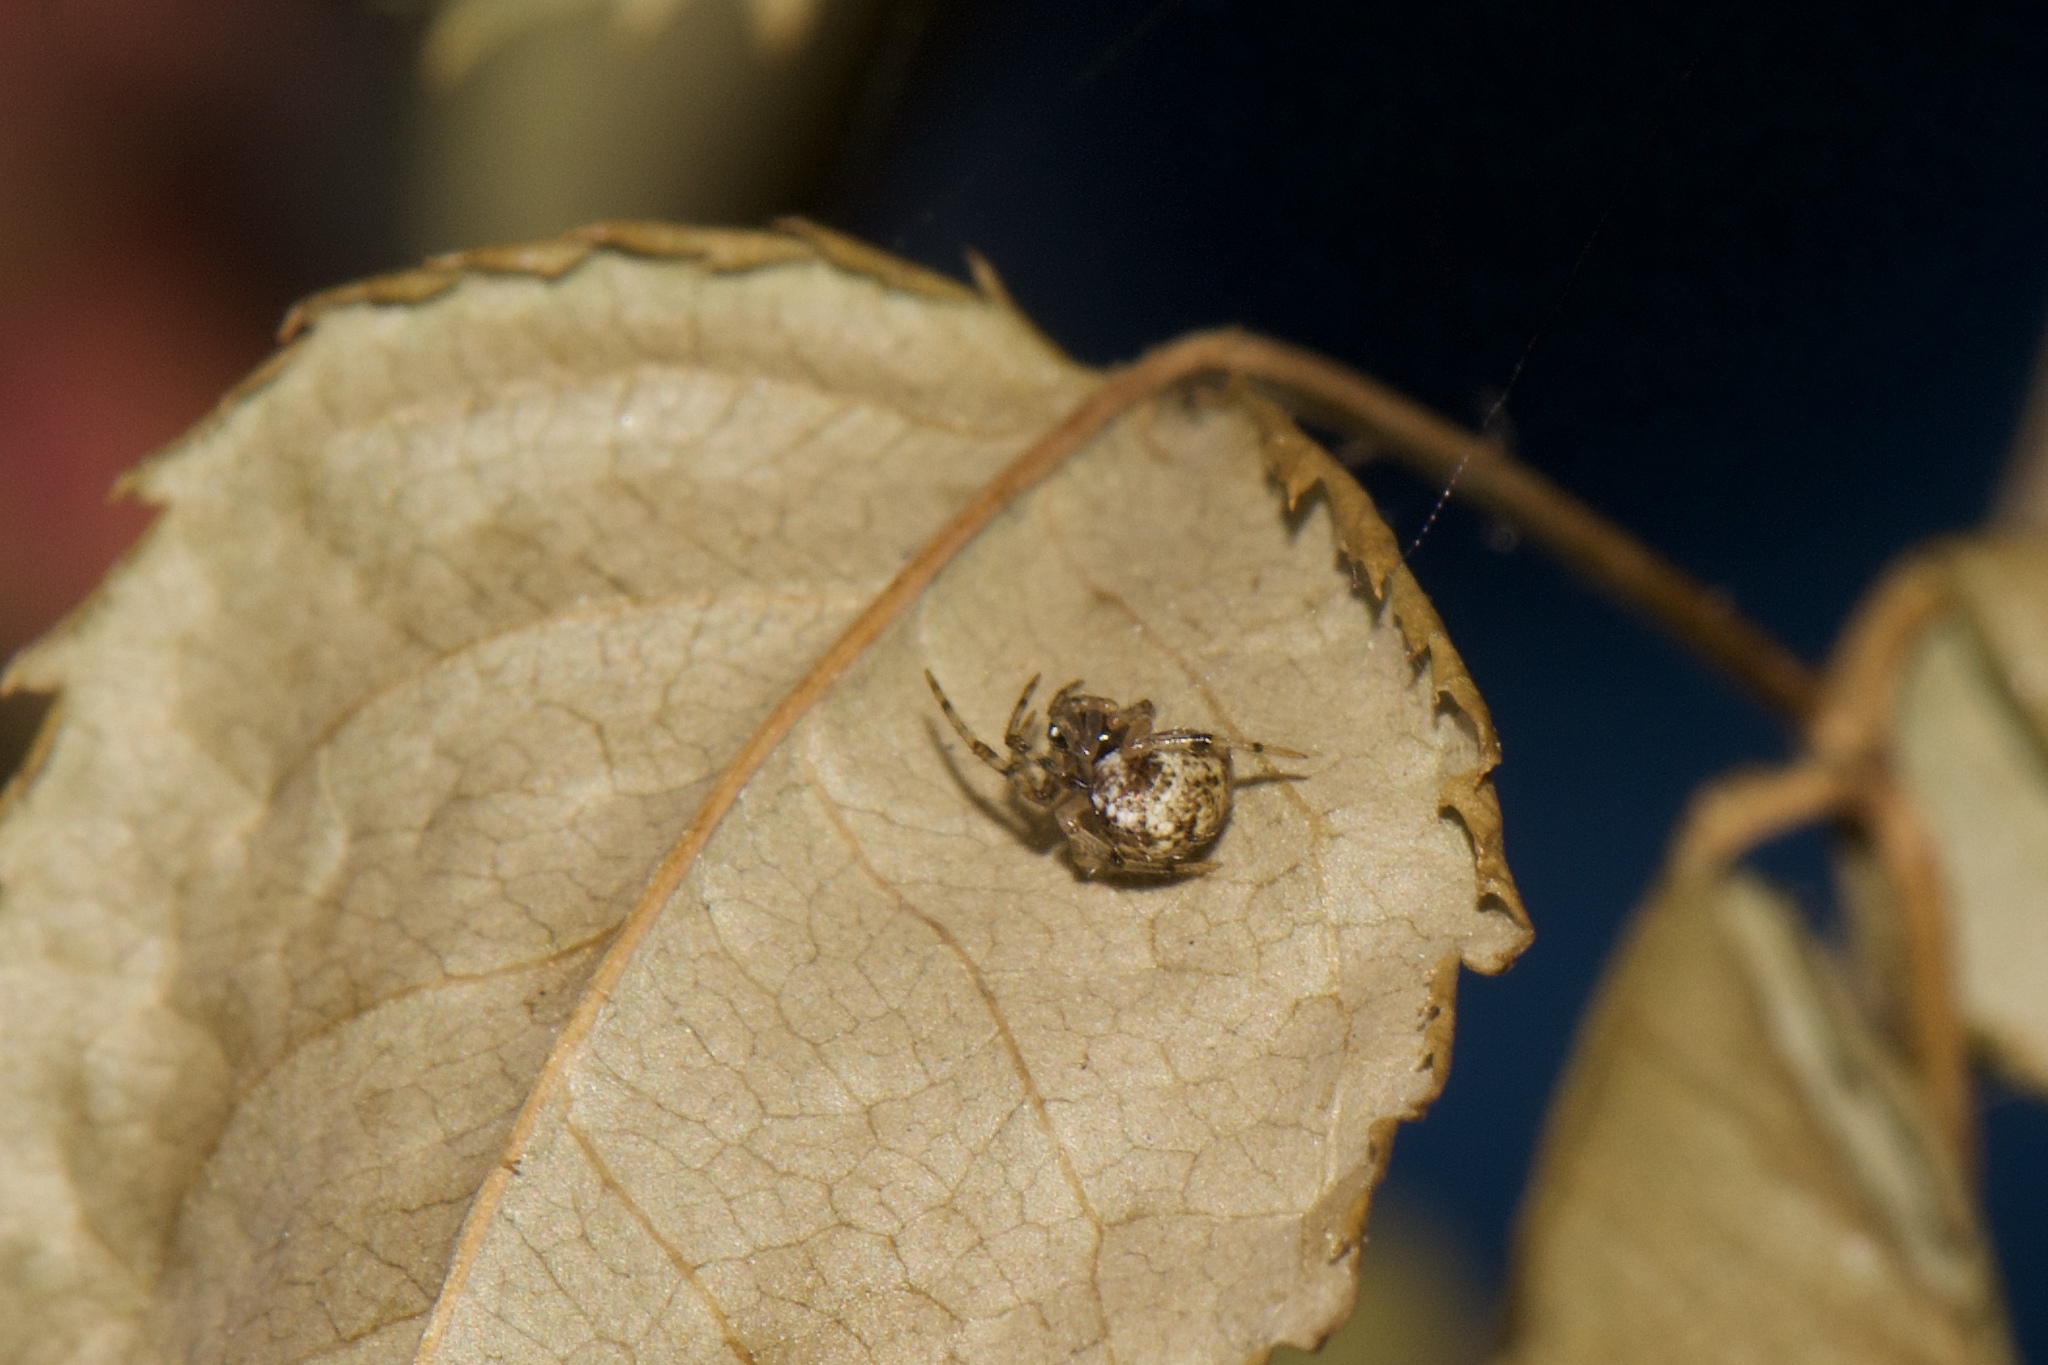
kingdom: Animalia
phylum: Arthropoda
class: Arachnida
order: Araneae
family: Theridiidae
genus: Parasteatoda
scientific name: Parasteatoda tepidariorum
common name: Common house spider
